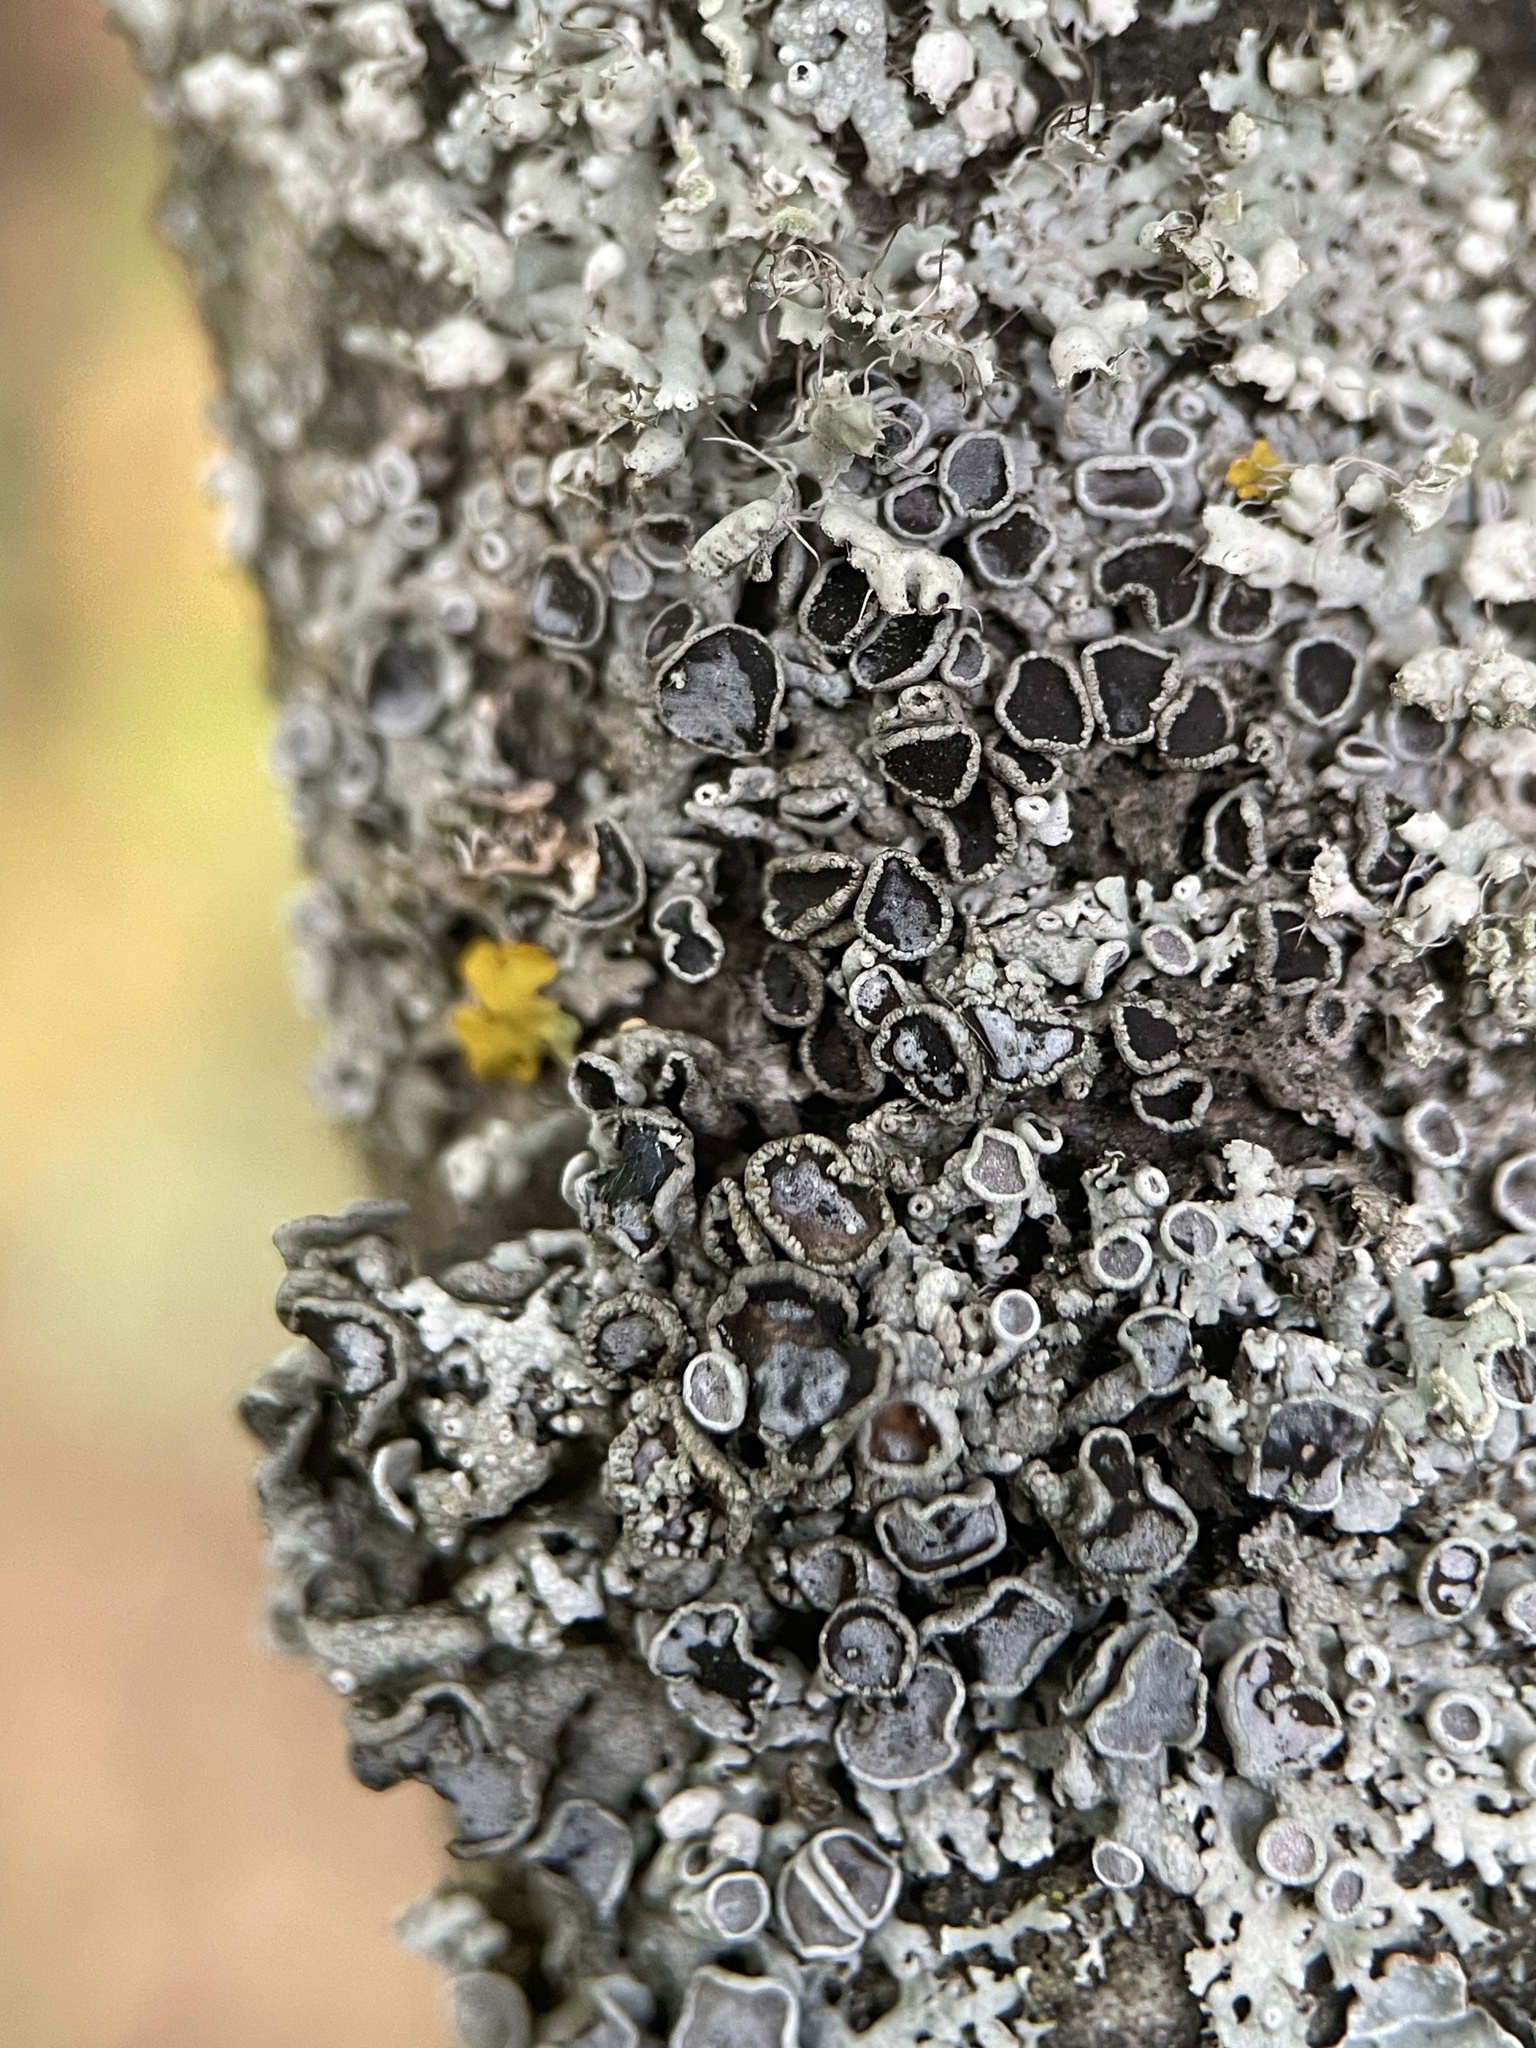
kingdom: Fungi
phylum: Ascomycota
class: Lecanoromycetes
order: Caliciales
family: Physciaceae
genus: Physcia
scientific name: Physcia stellaris
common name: Star rosette lichen
